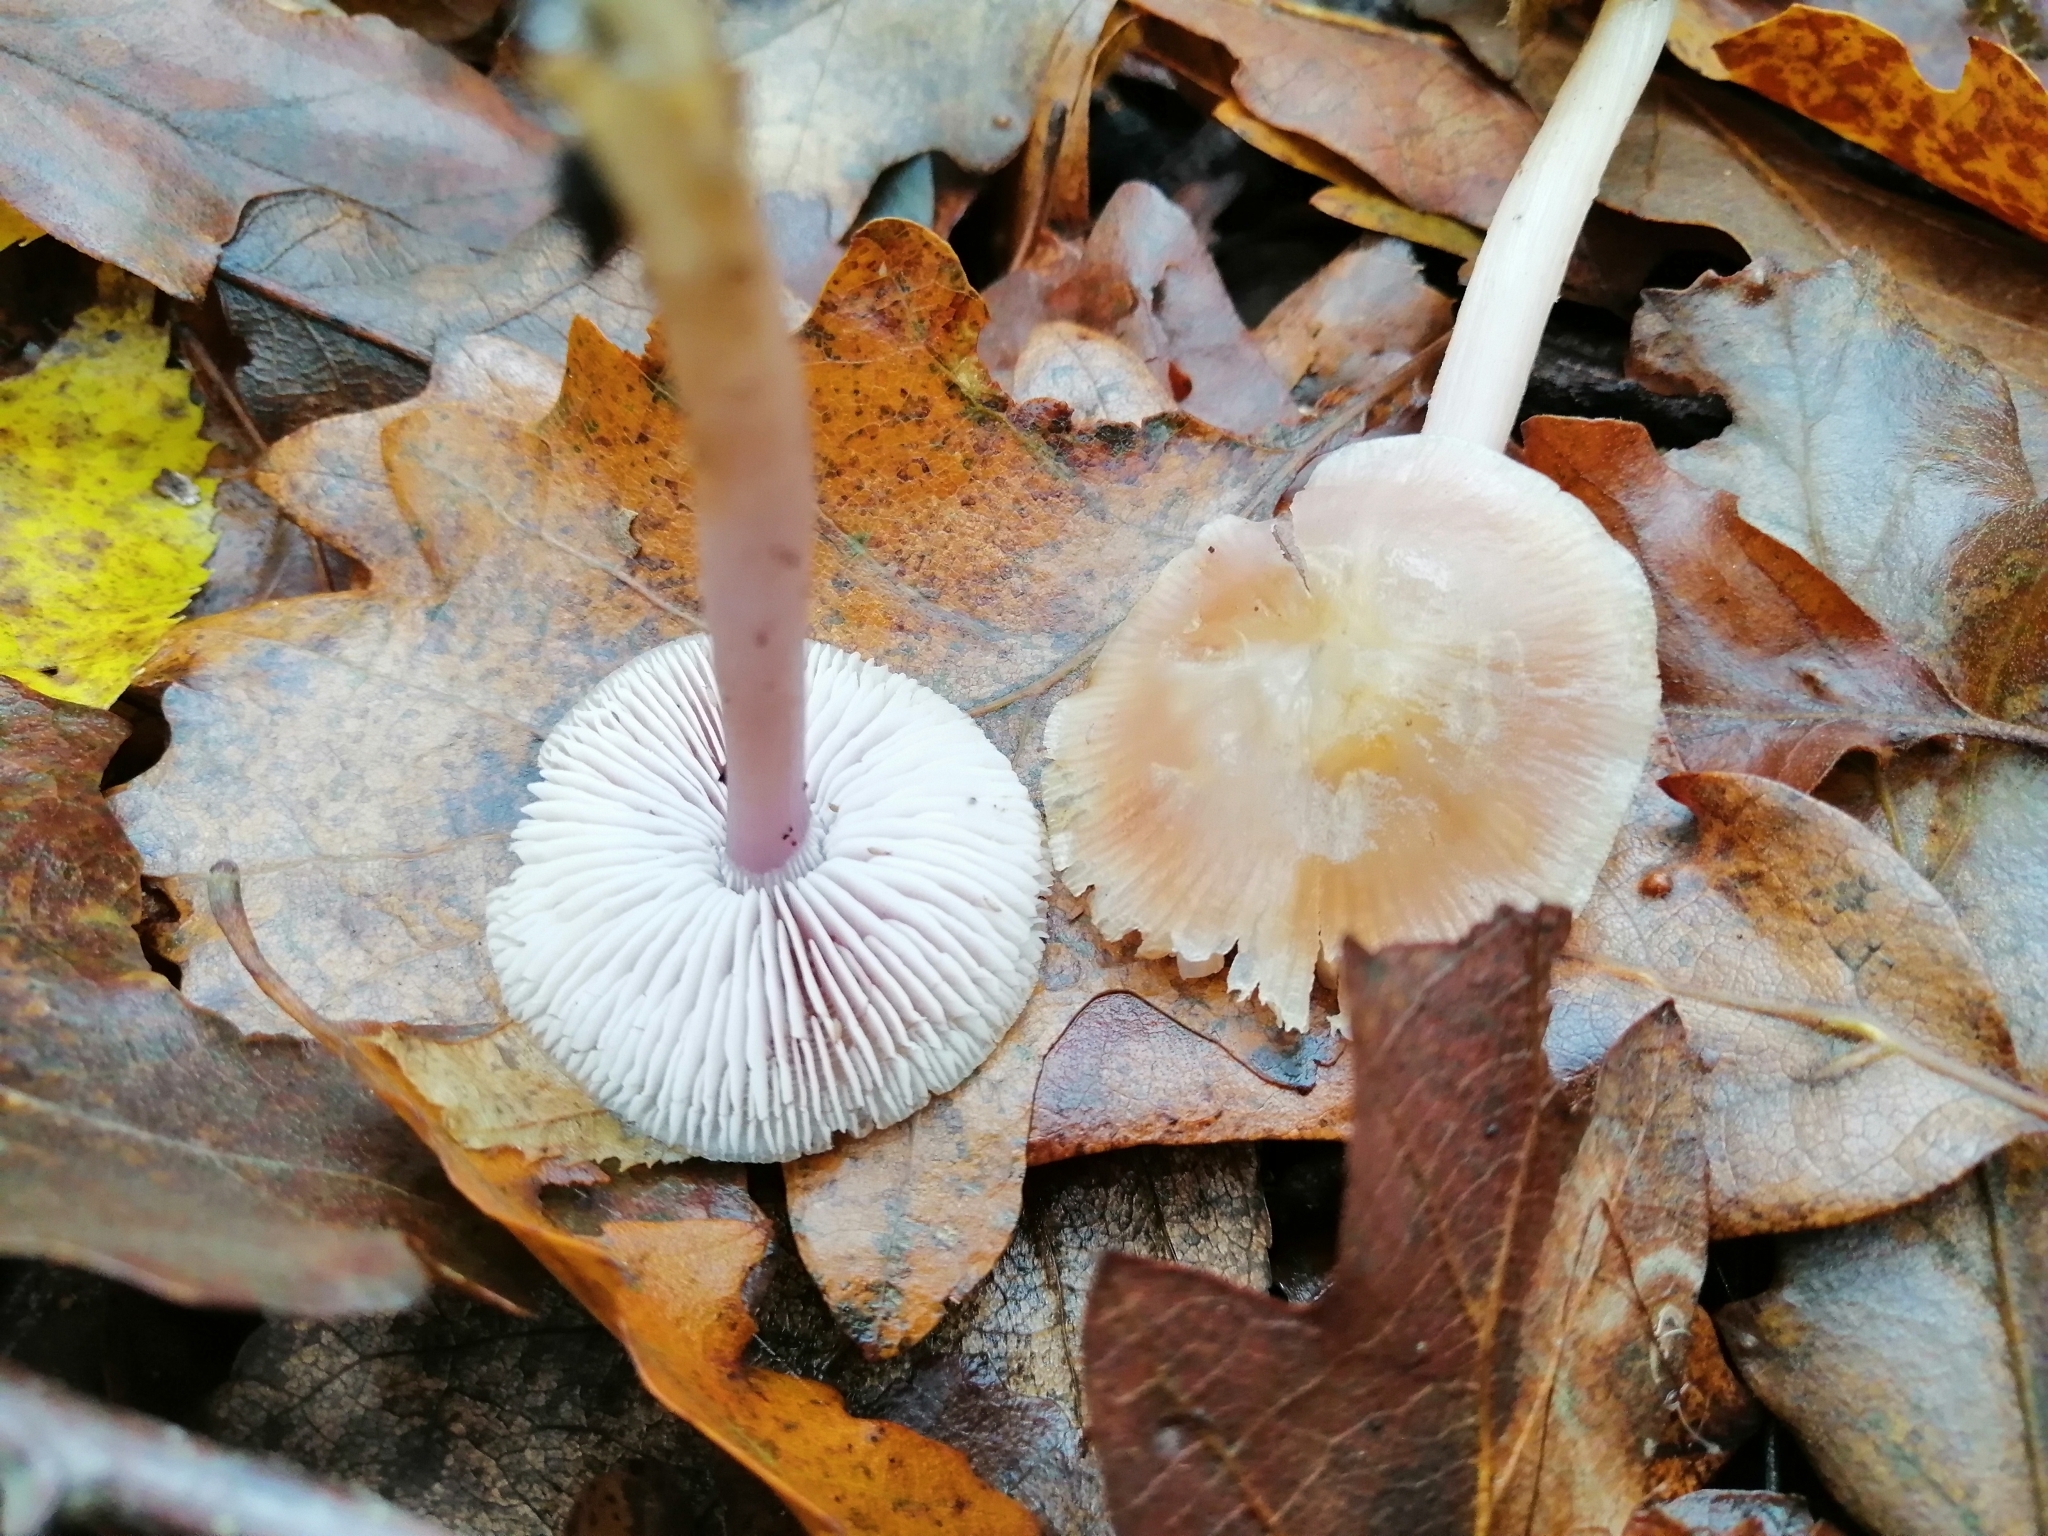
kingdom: Fungi
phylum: Basidiomycota
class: Agaricomycetes
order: Agaricales
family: Mycenaceae
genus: Mycena
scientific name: Mycena pura
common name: Lilac bonnet
